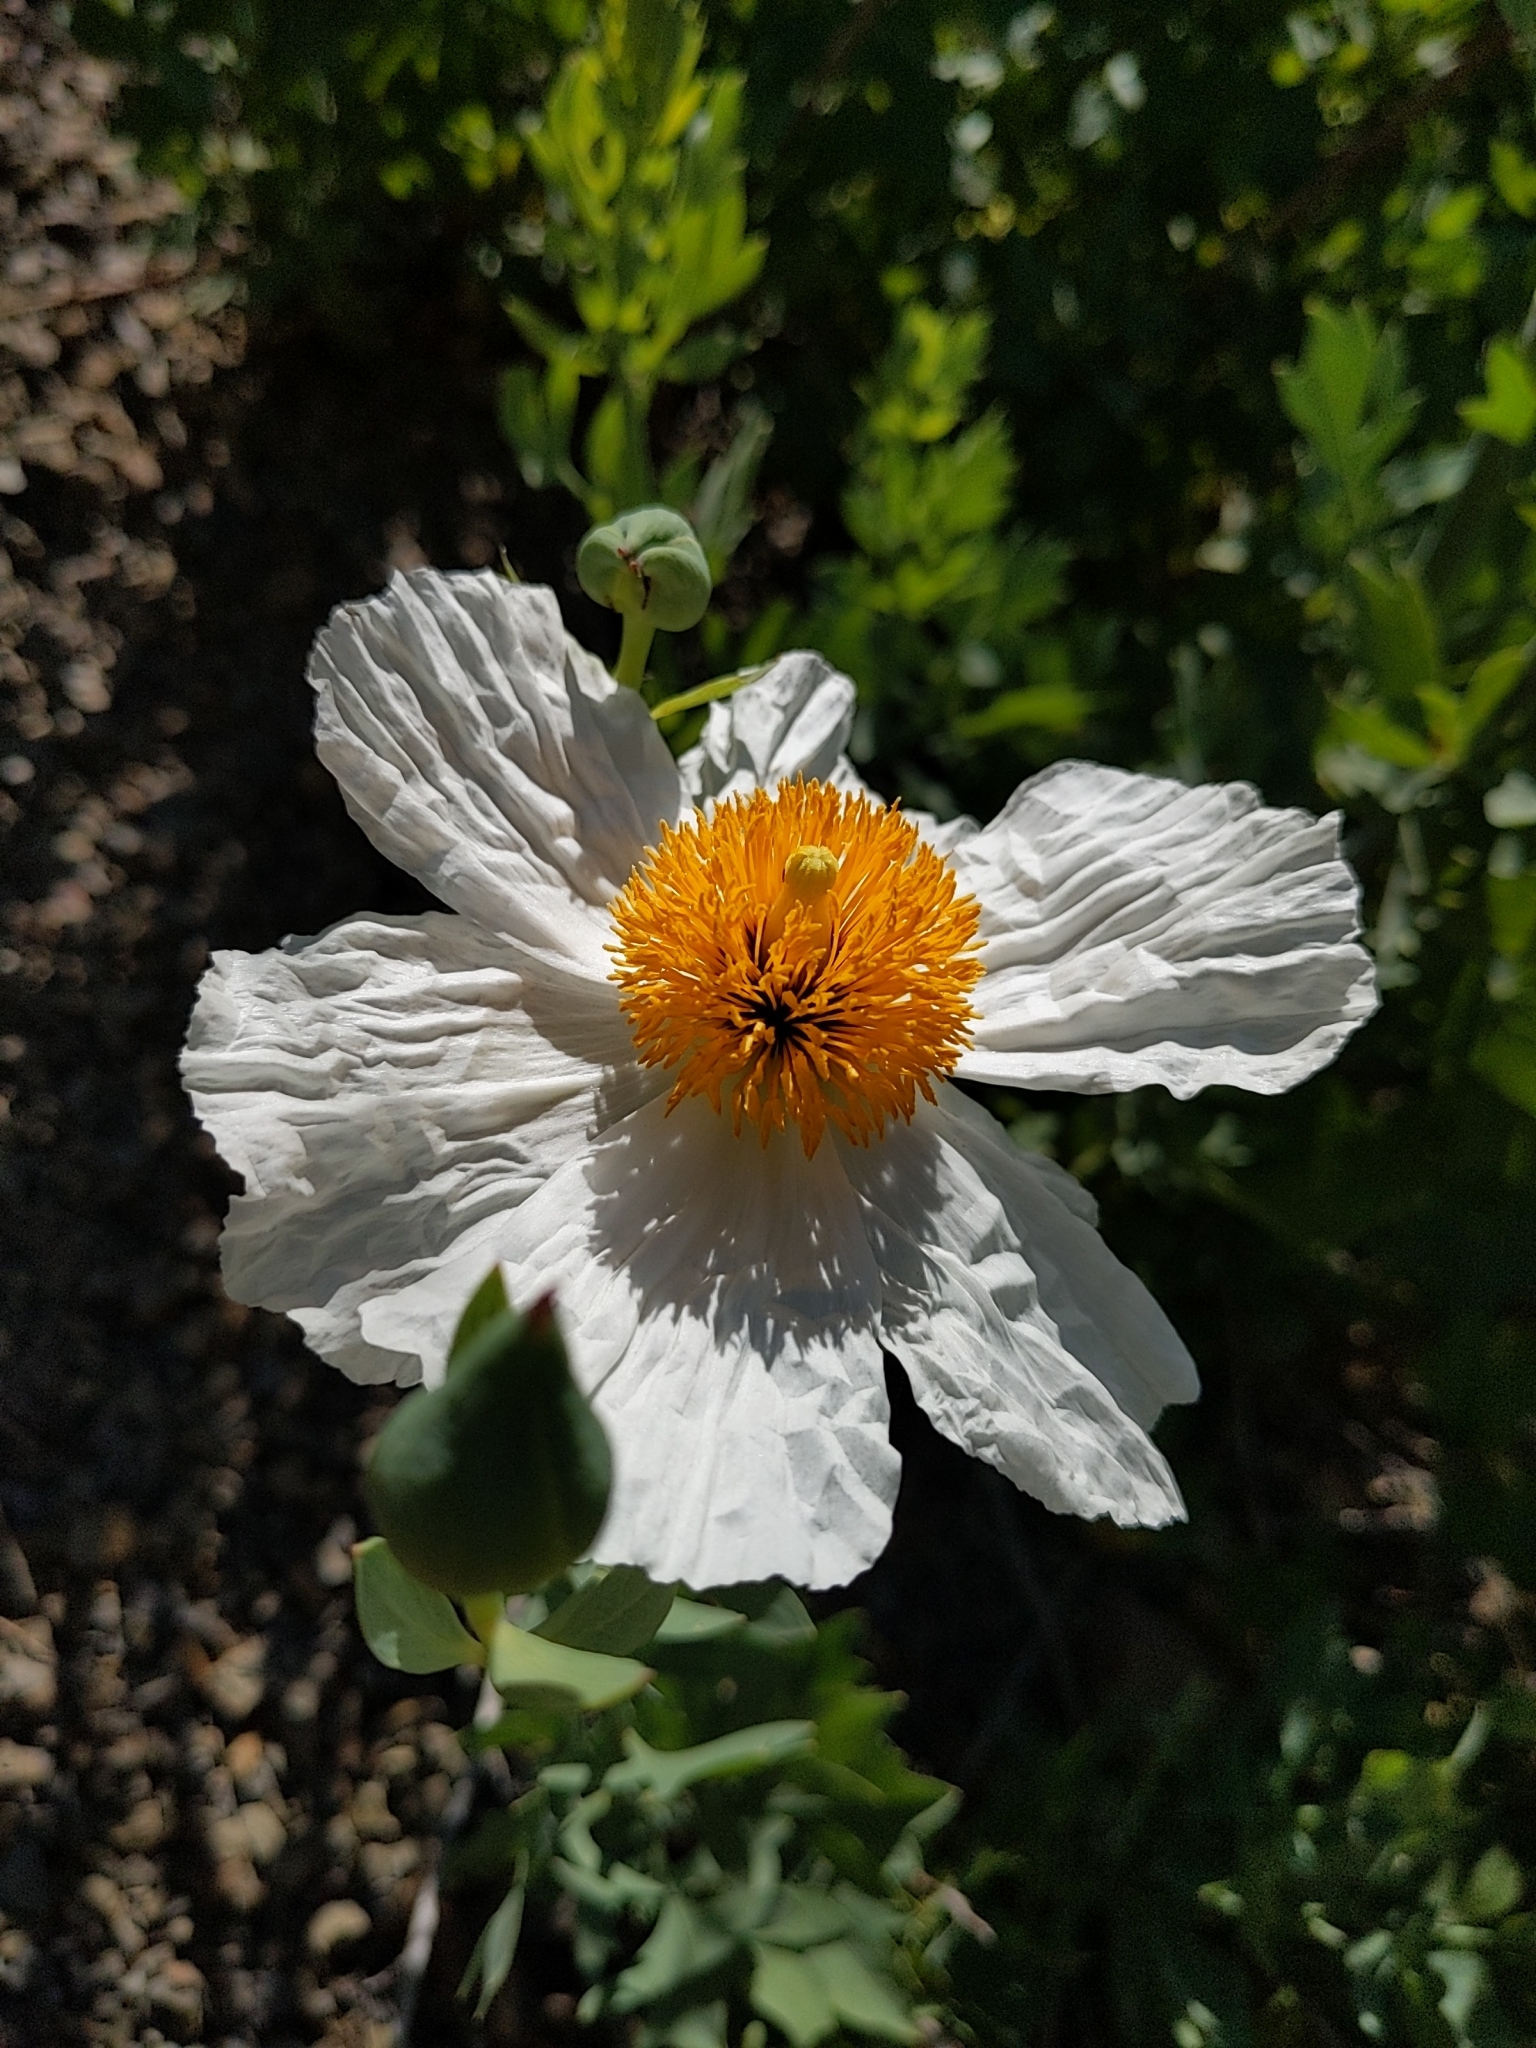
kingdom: Plantae
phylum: Tracheophyta
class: Magnoliopsida
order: Ranunculales
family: Papaveraceae
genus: Romneya
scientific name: Romneya coulteri
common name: California tree-poppy
